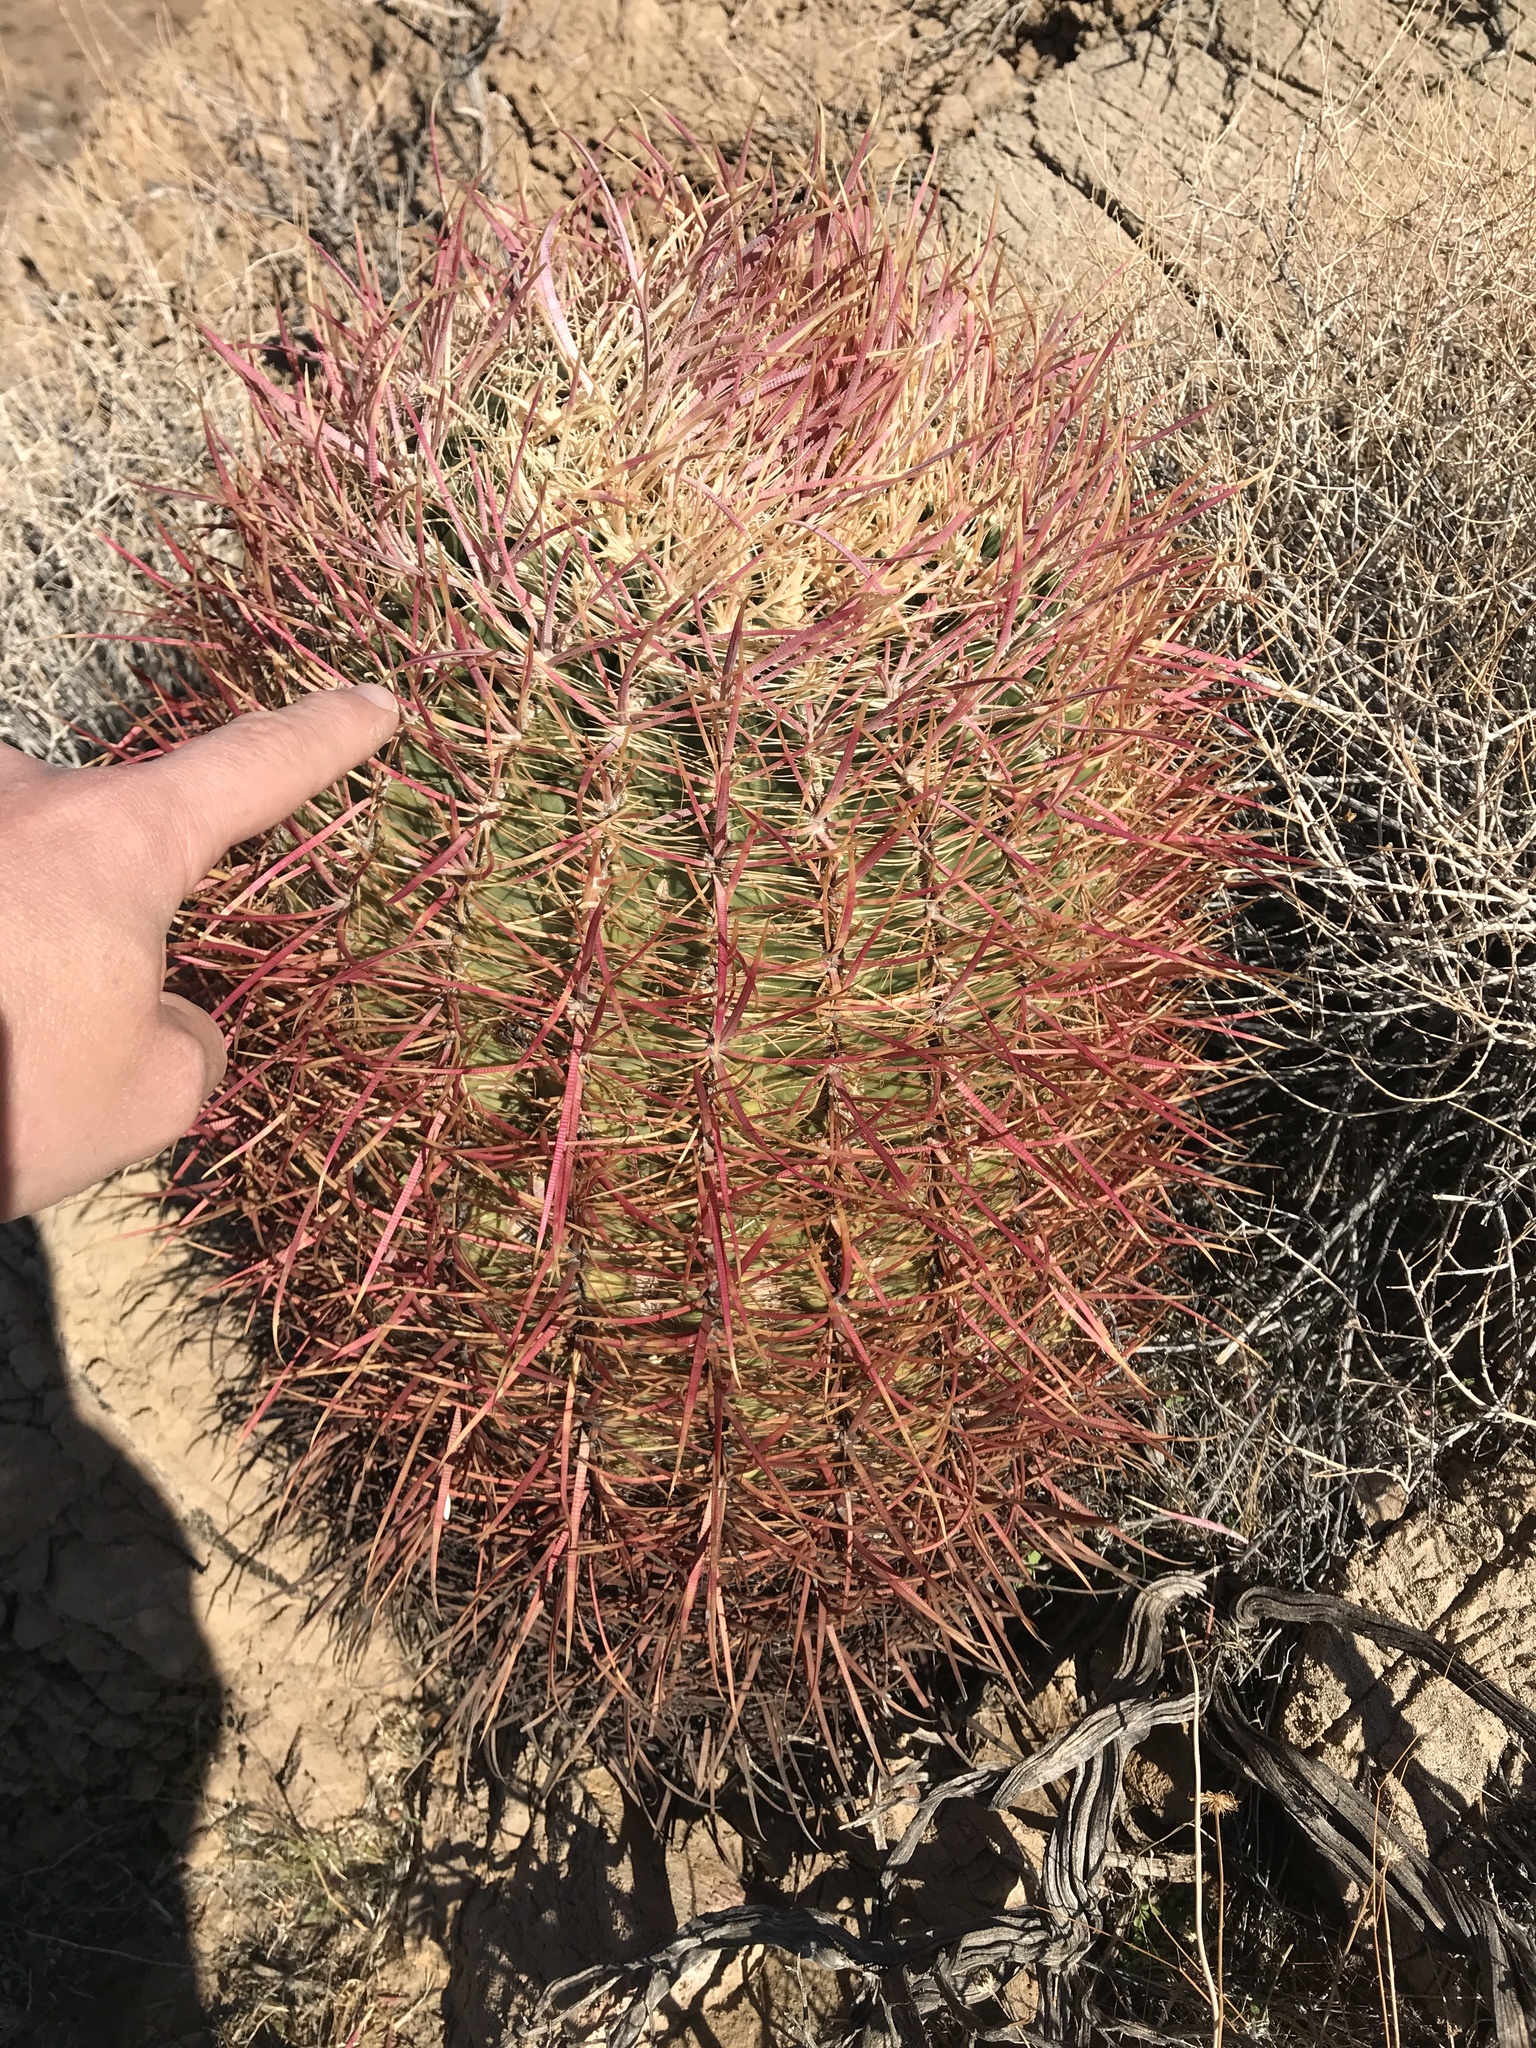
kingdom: Plantae
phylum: Tracheophyta
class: Magnoliopsida
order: Caryophyllales
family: Cactaceae
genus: Ferocactus
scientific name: Ferocactus cylindraceus
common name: California barrel cactus
